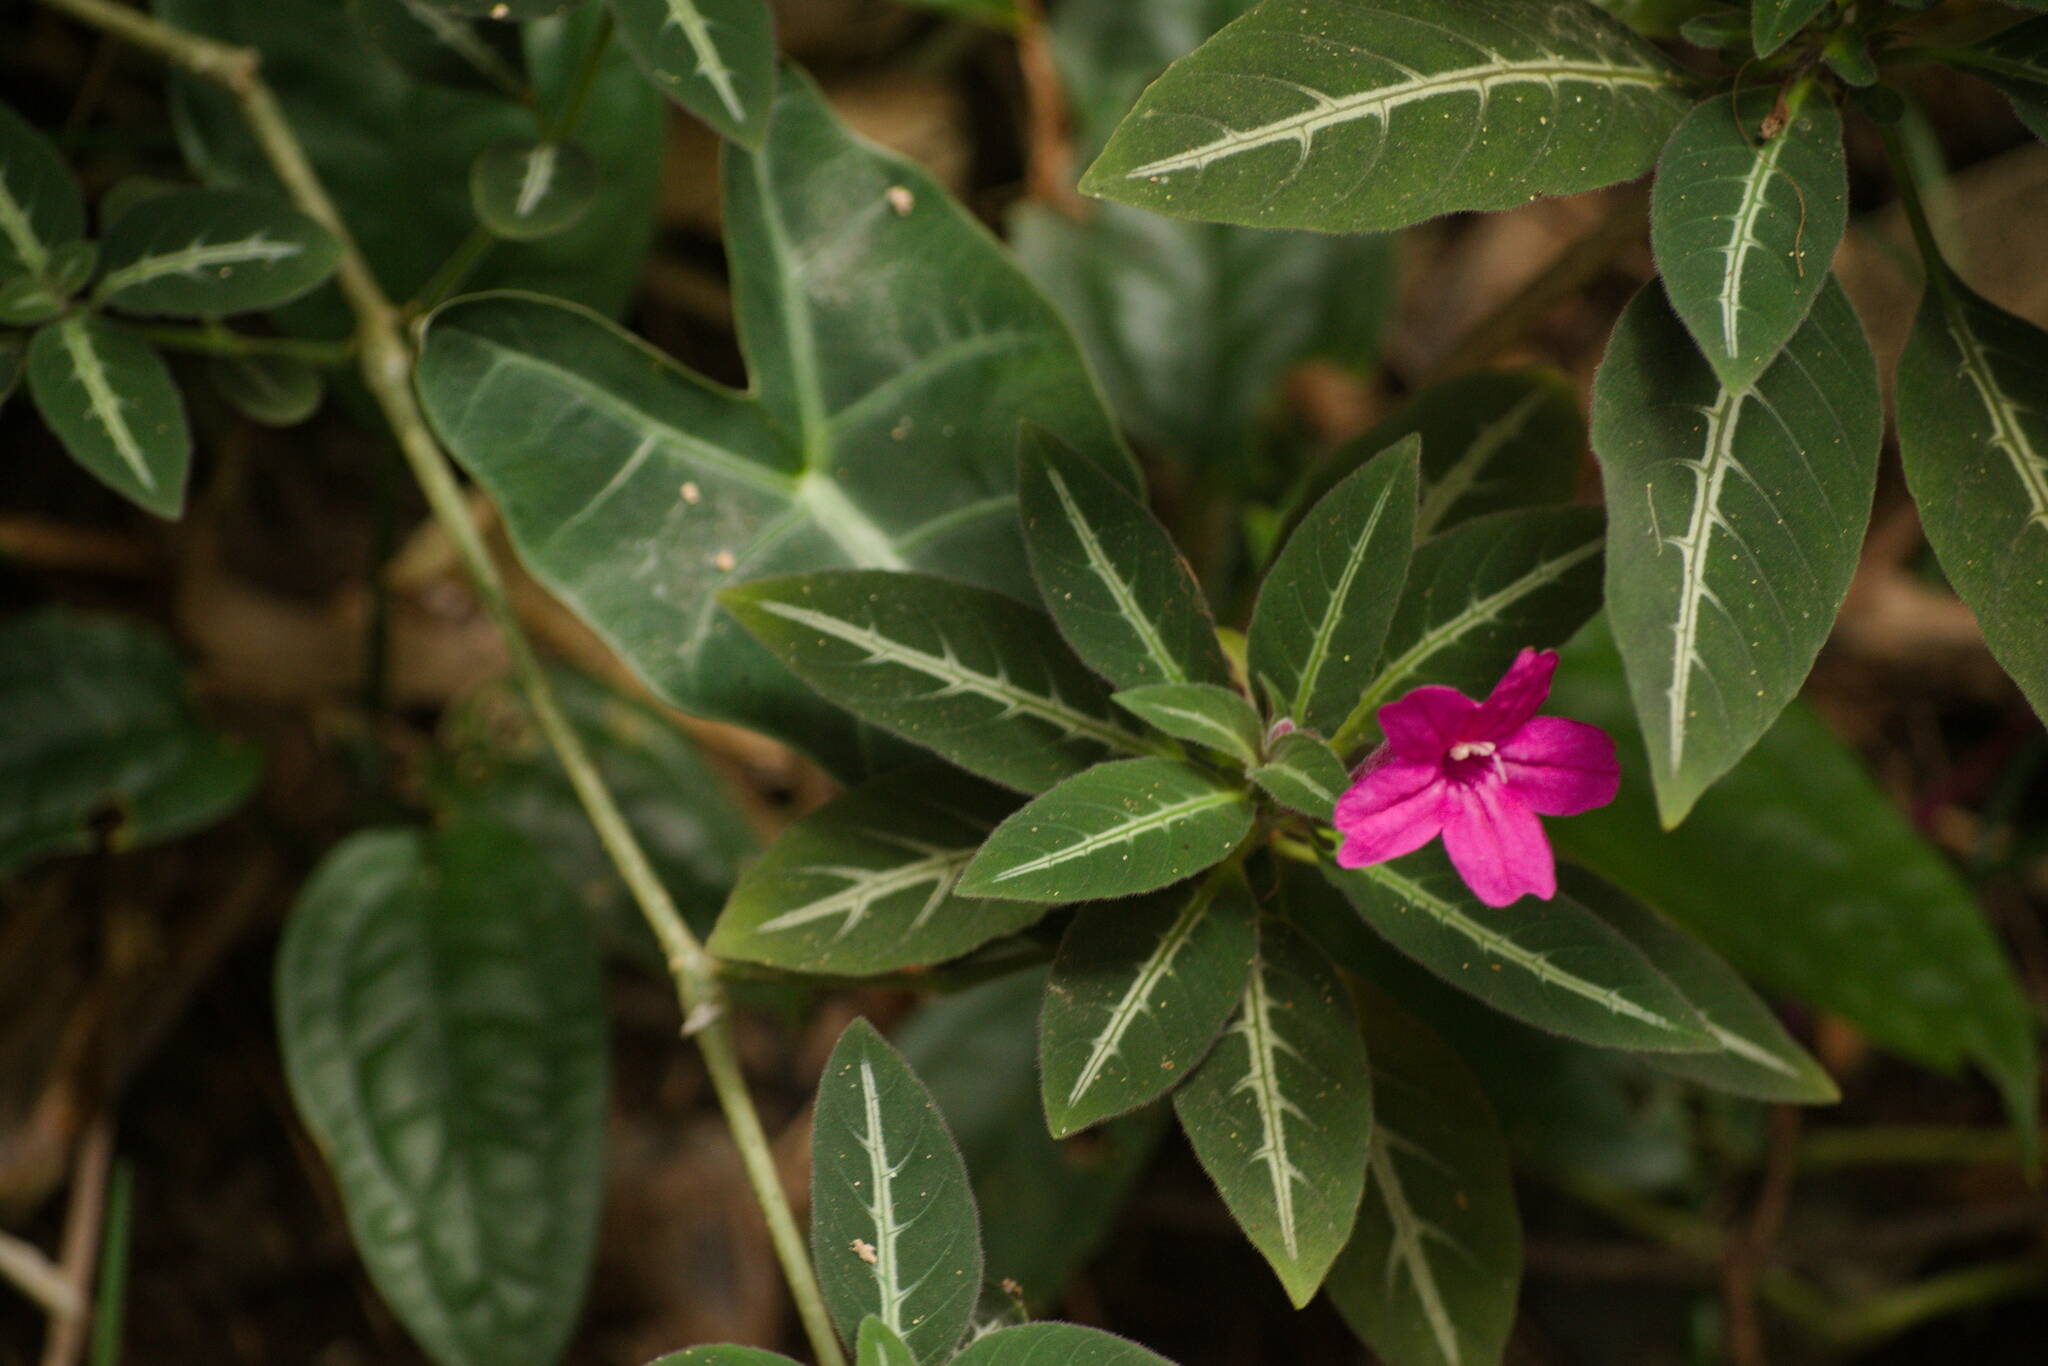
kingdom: Plantae
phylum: Tracheophyta
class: Magnoliopsida
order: Lamiales
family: Acanthaceae
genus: Ruellia
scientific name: Ruellia makoyana
